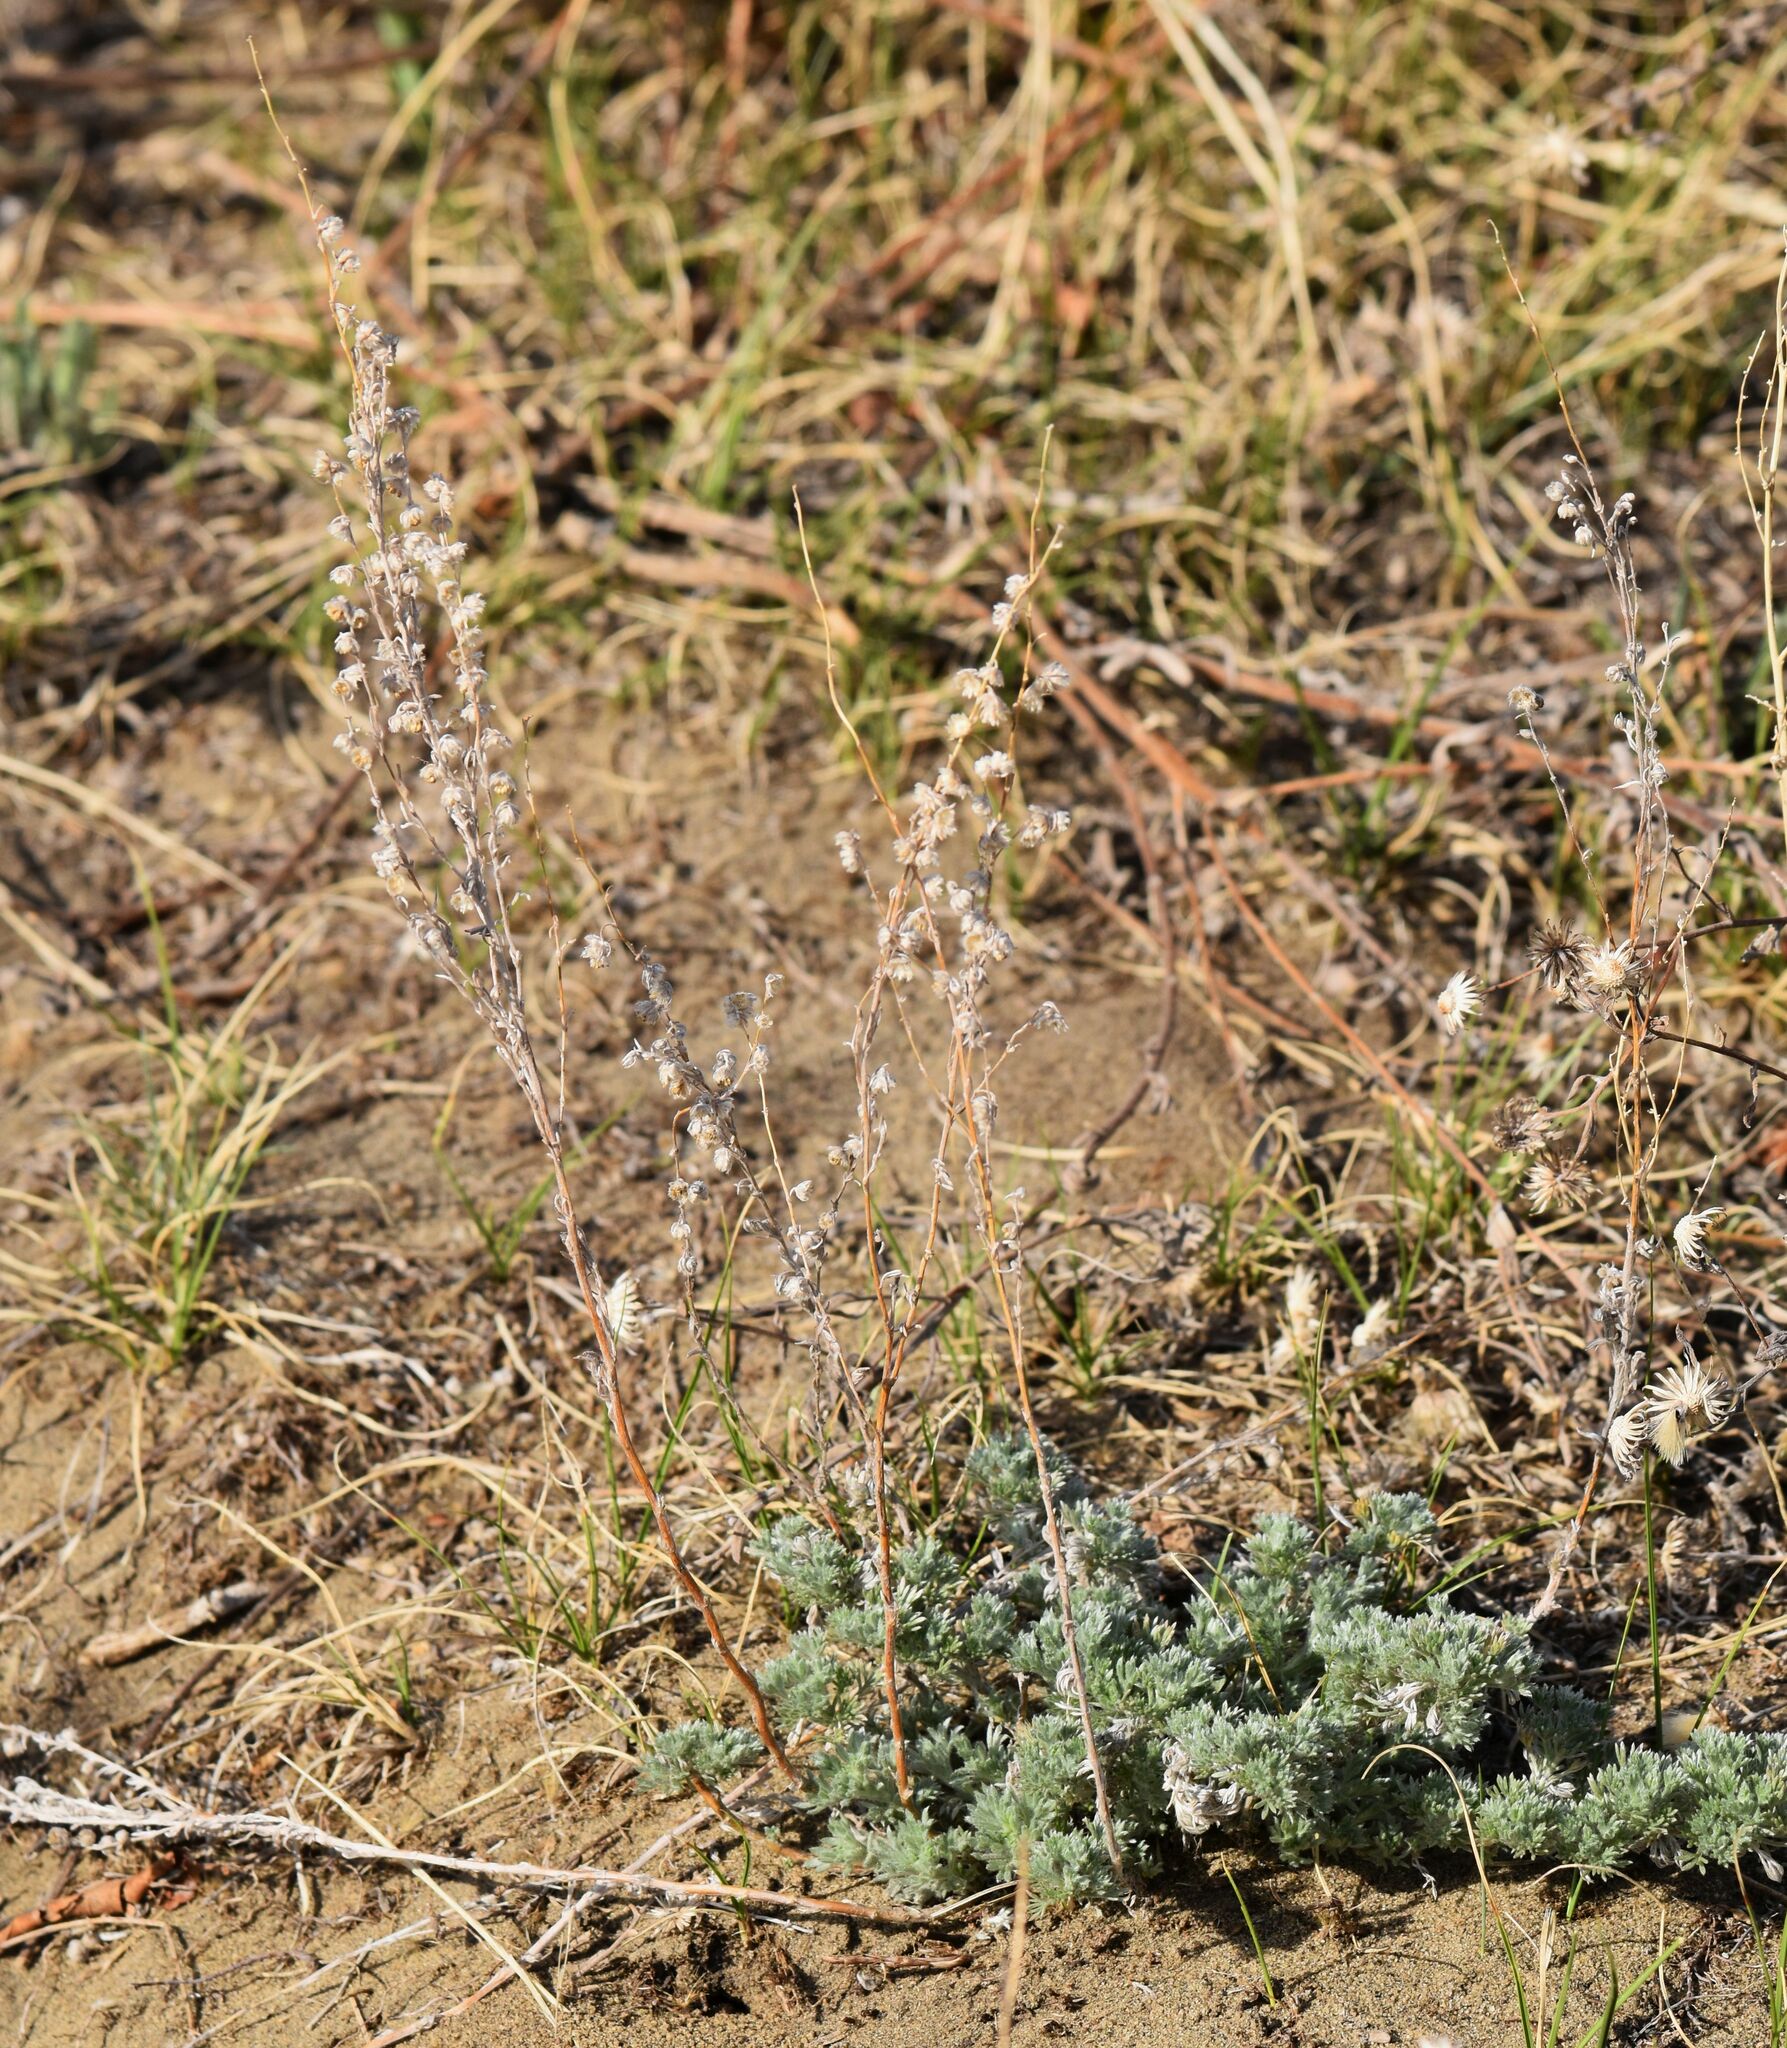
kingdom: Plantae
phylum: Tracheophyta
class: Magnoliopsida
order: Asterales
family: Asteraceae
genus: Artemisia
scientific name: Artemisia frigida
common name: Prairie sagewort
